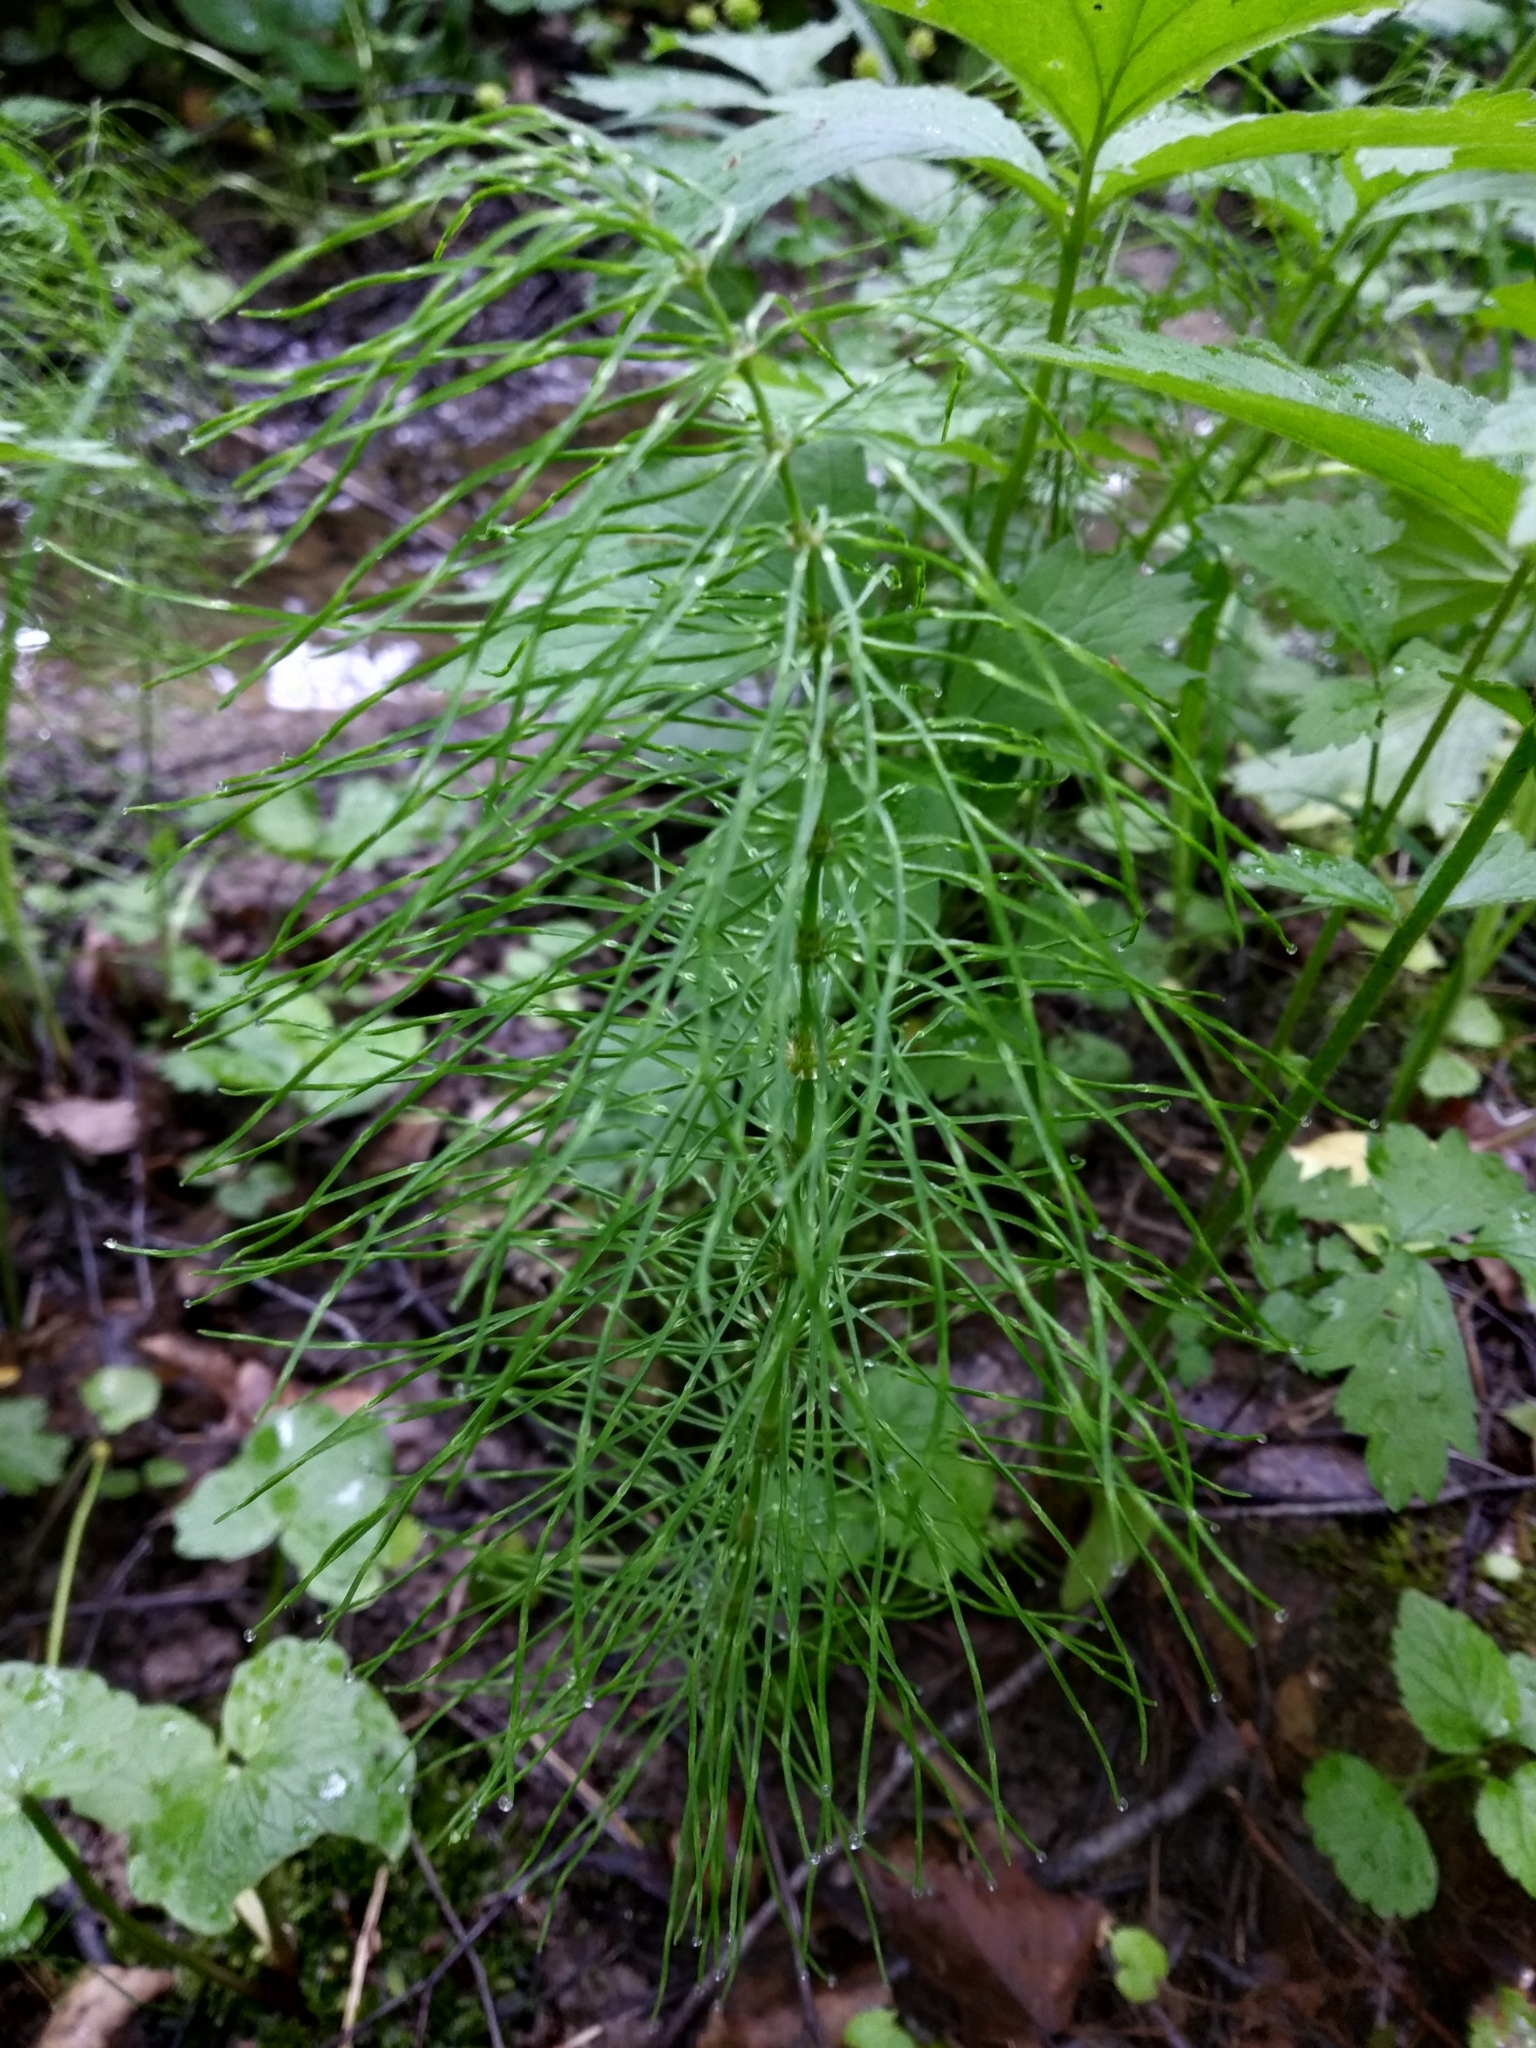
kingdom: Plantae
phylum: Tracheophyta
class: Polypodiopsida
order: Equisetales
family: Equisetaceae
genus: Equisetum
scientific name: Equisetum pratense
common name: Meadow horsetail
